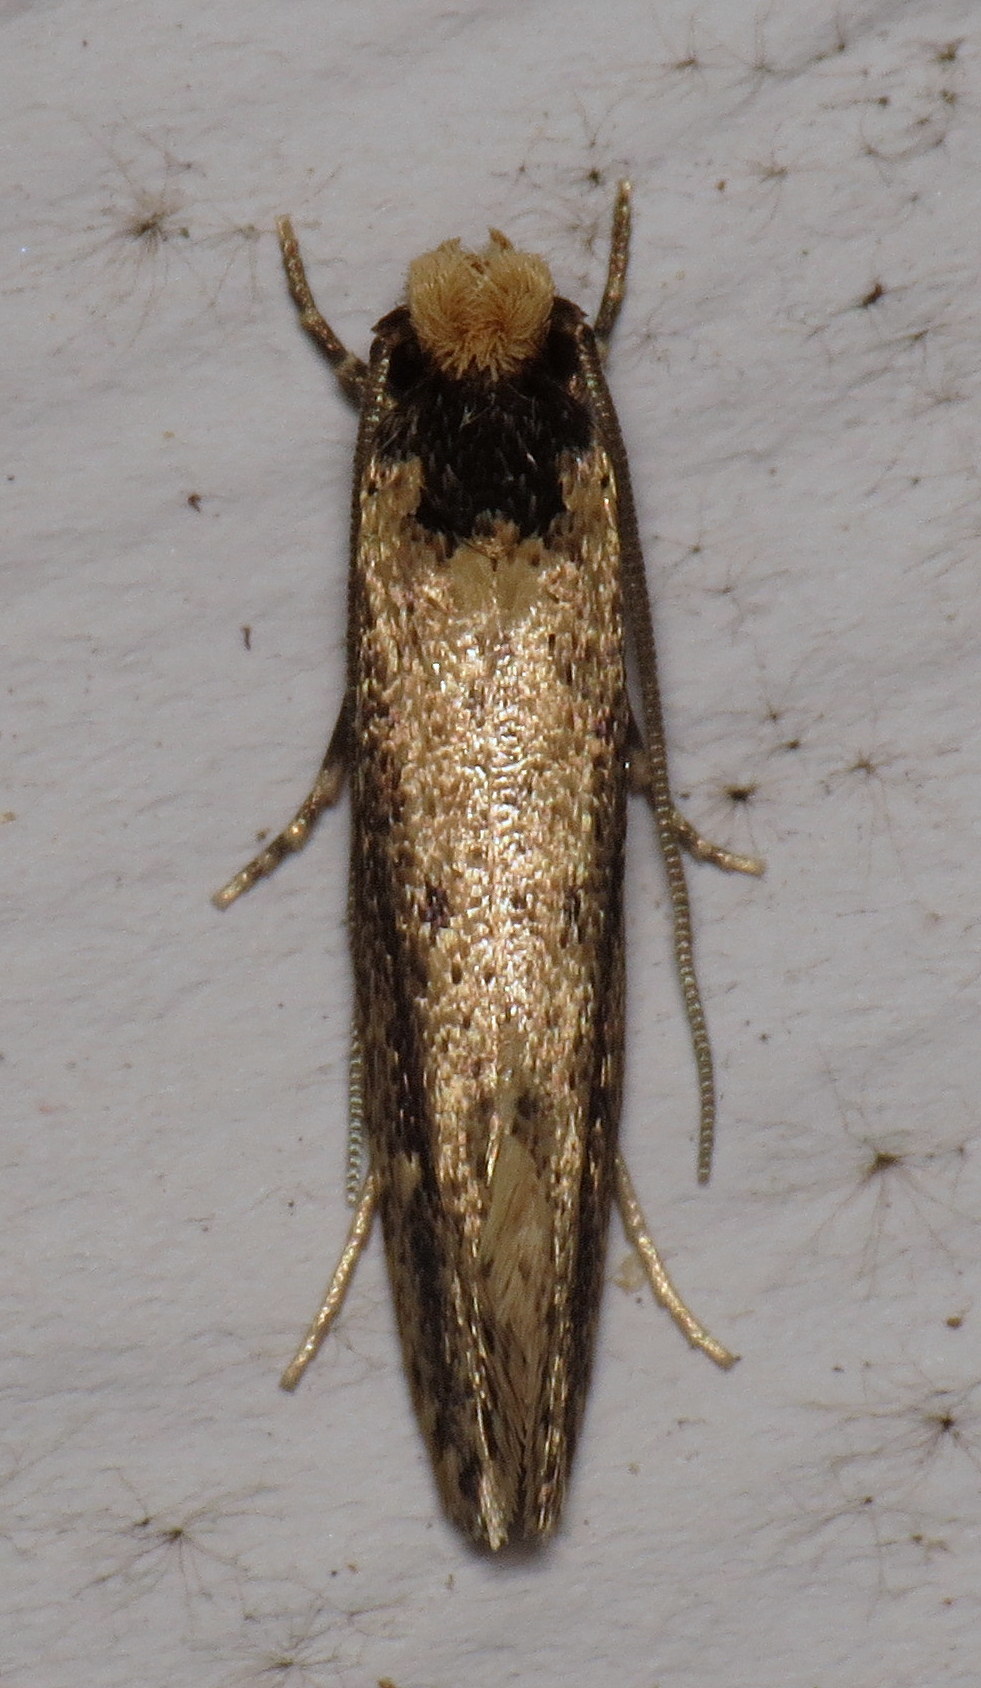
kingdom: Animalia
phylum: Arthropoda
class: Insecta
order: Lepidoptera
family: Tineidae
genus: Tinea
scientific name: Tinea apicimaculella
